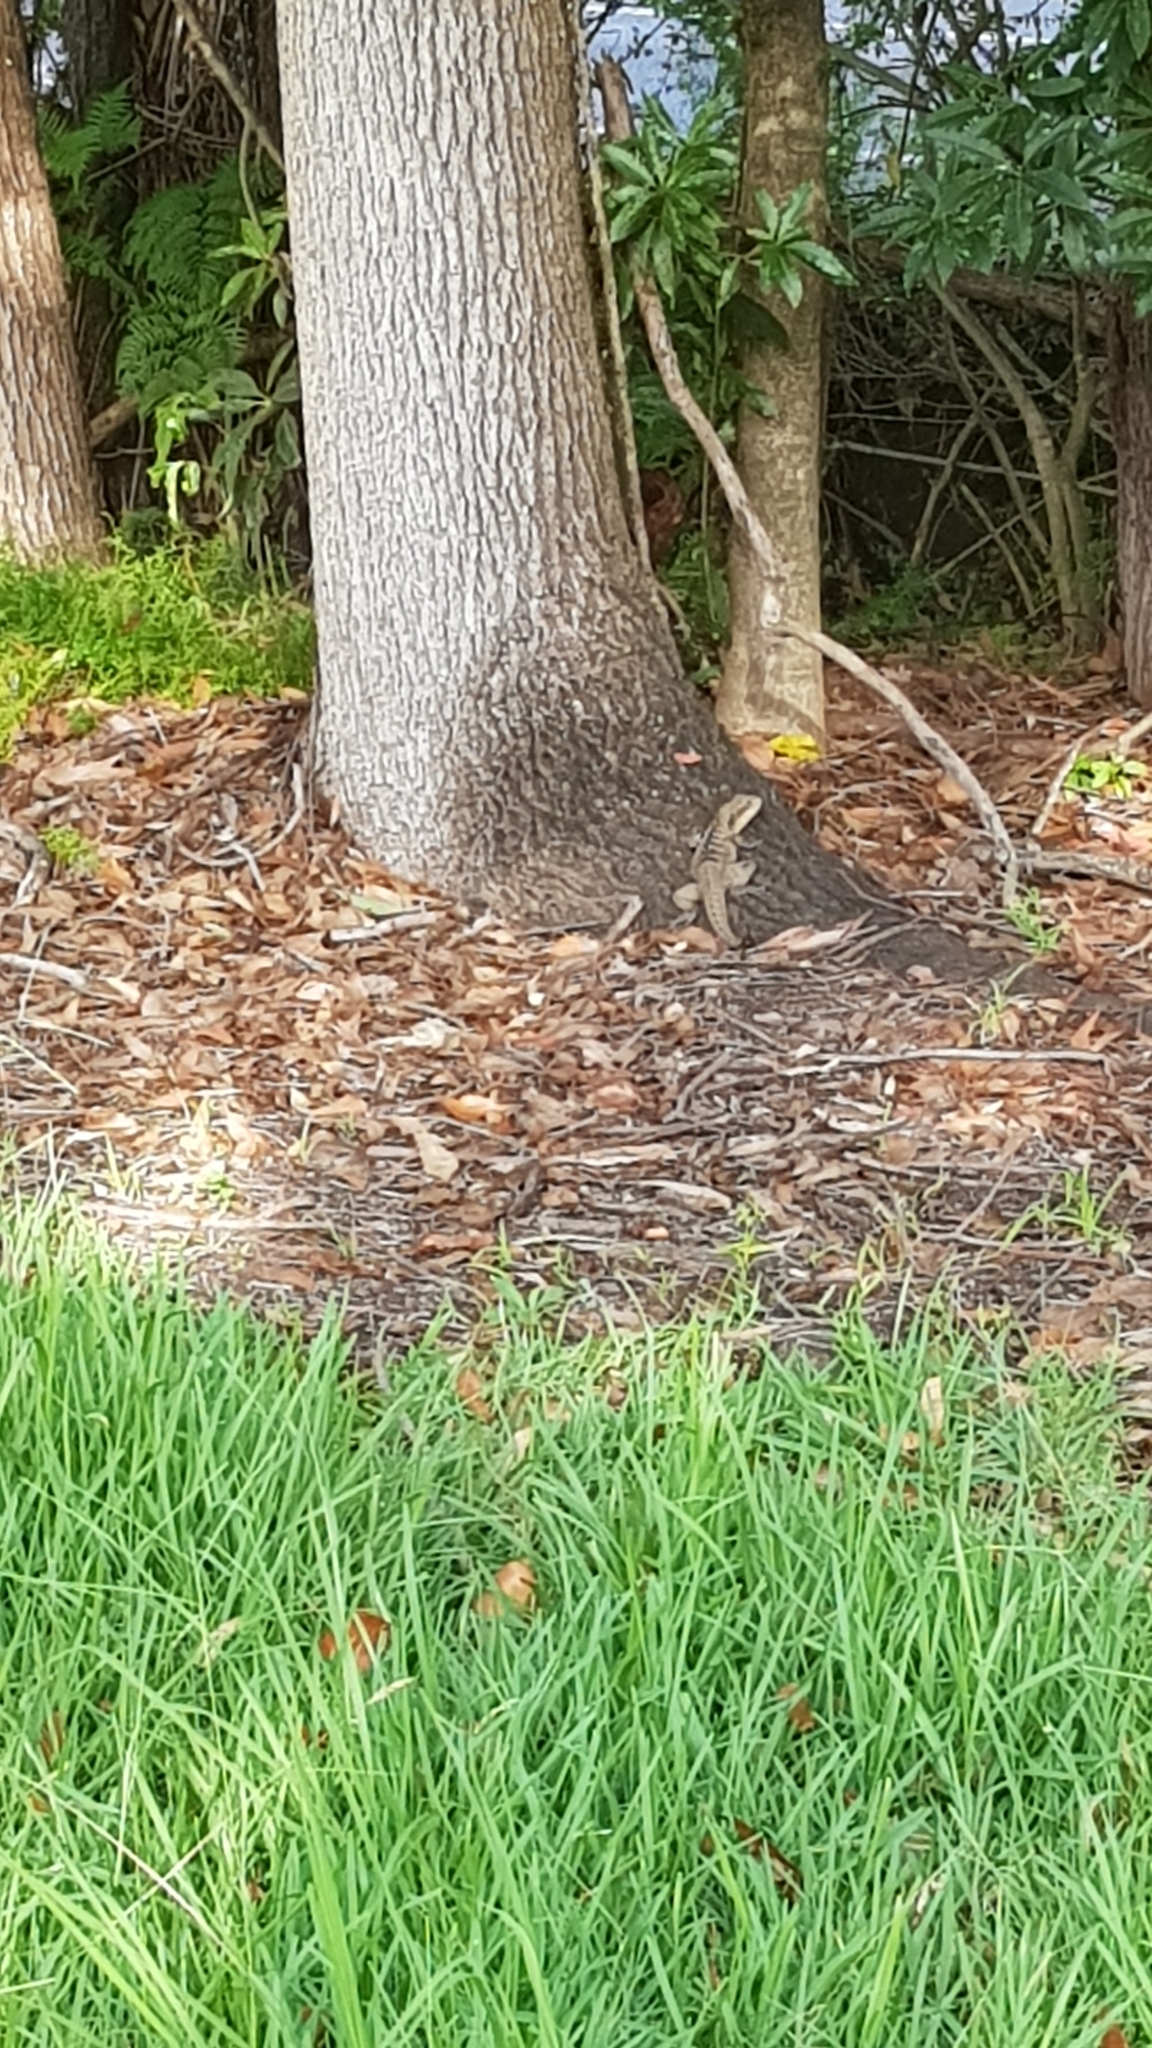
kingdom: Animalia
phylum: Chordata
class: Squamata
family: Agamidae
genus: Intellagama
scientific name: Intellagama lesueurii
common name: Eastern water dragon
